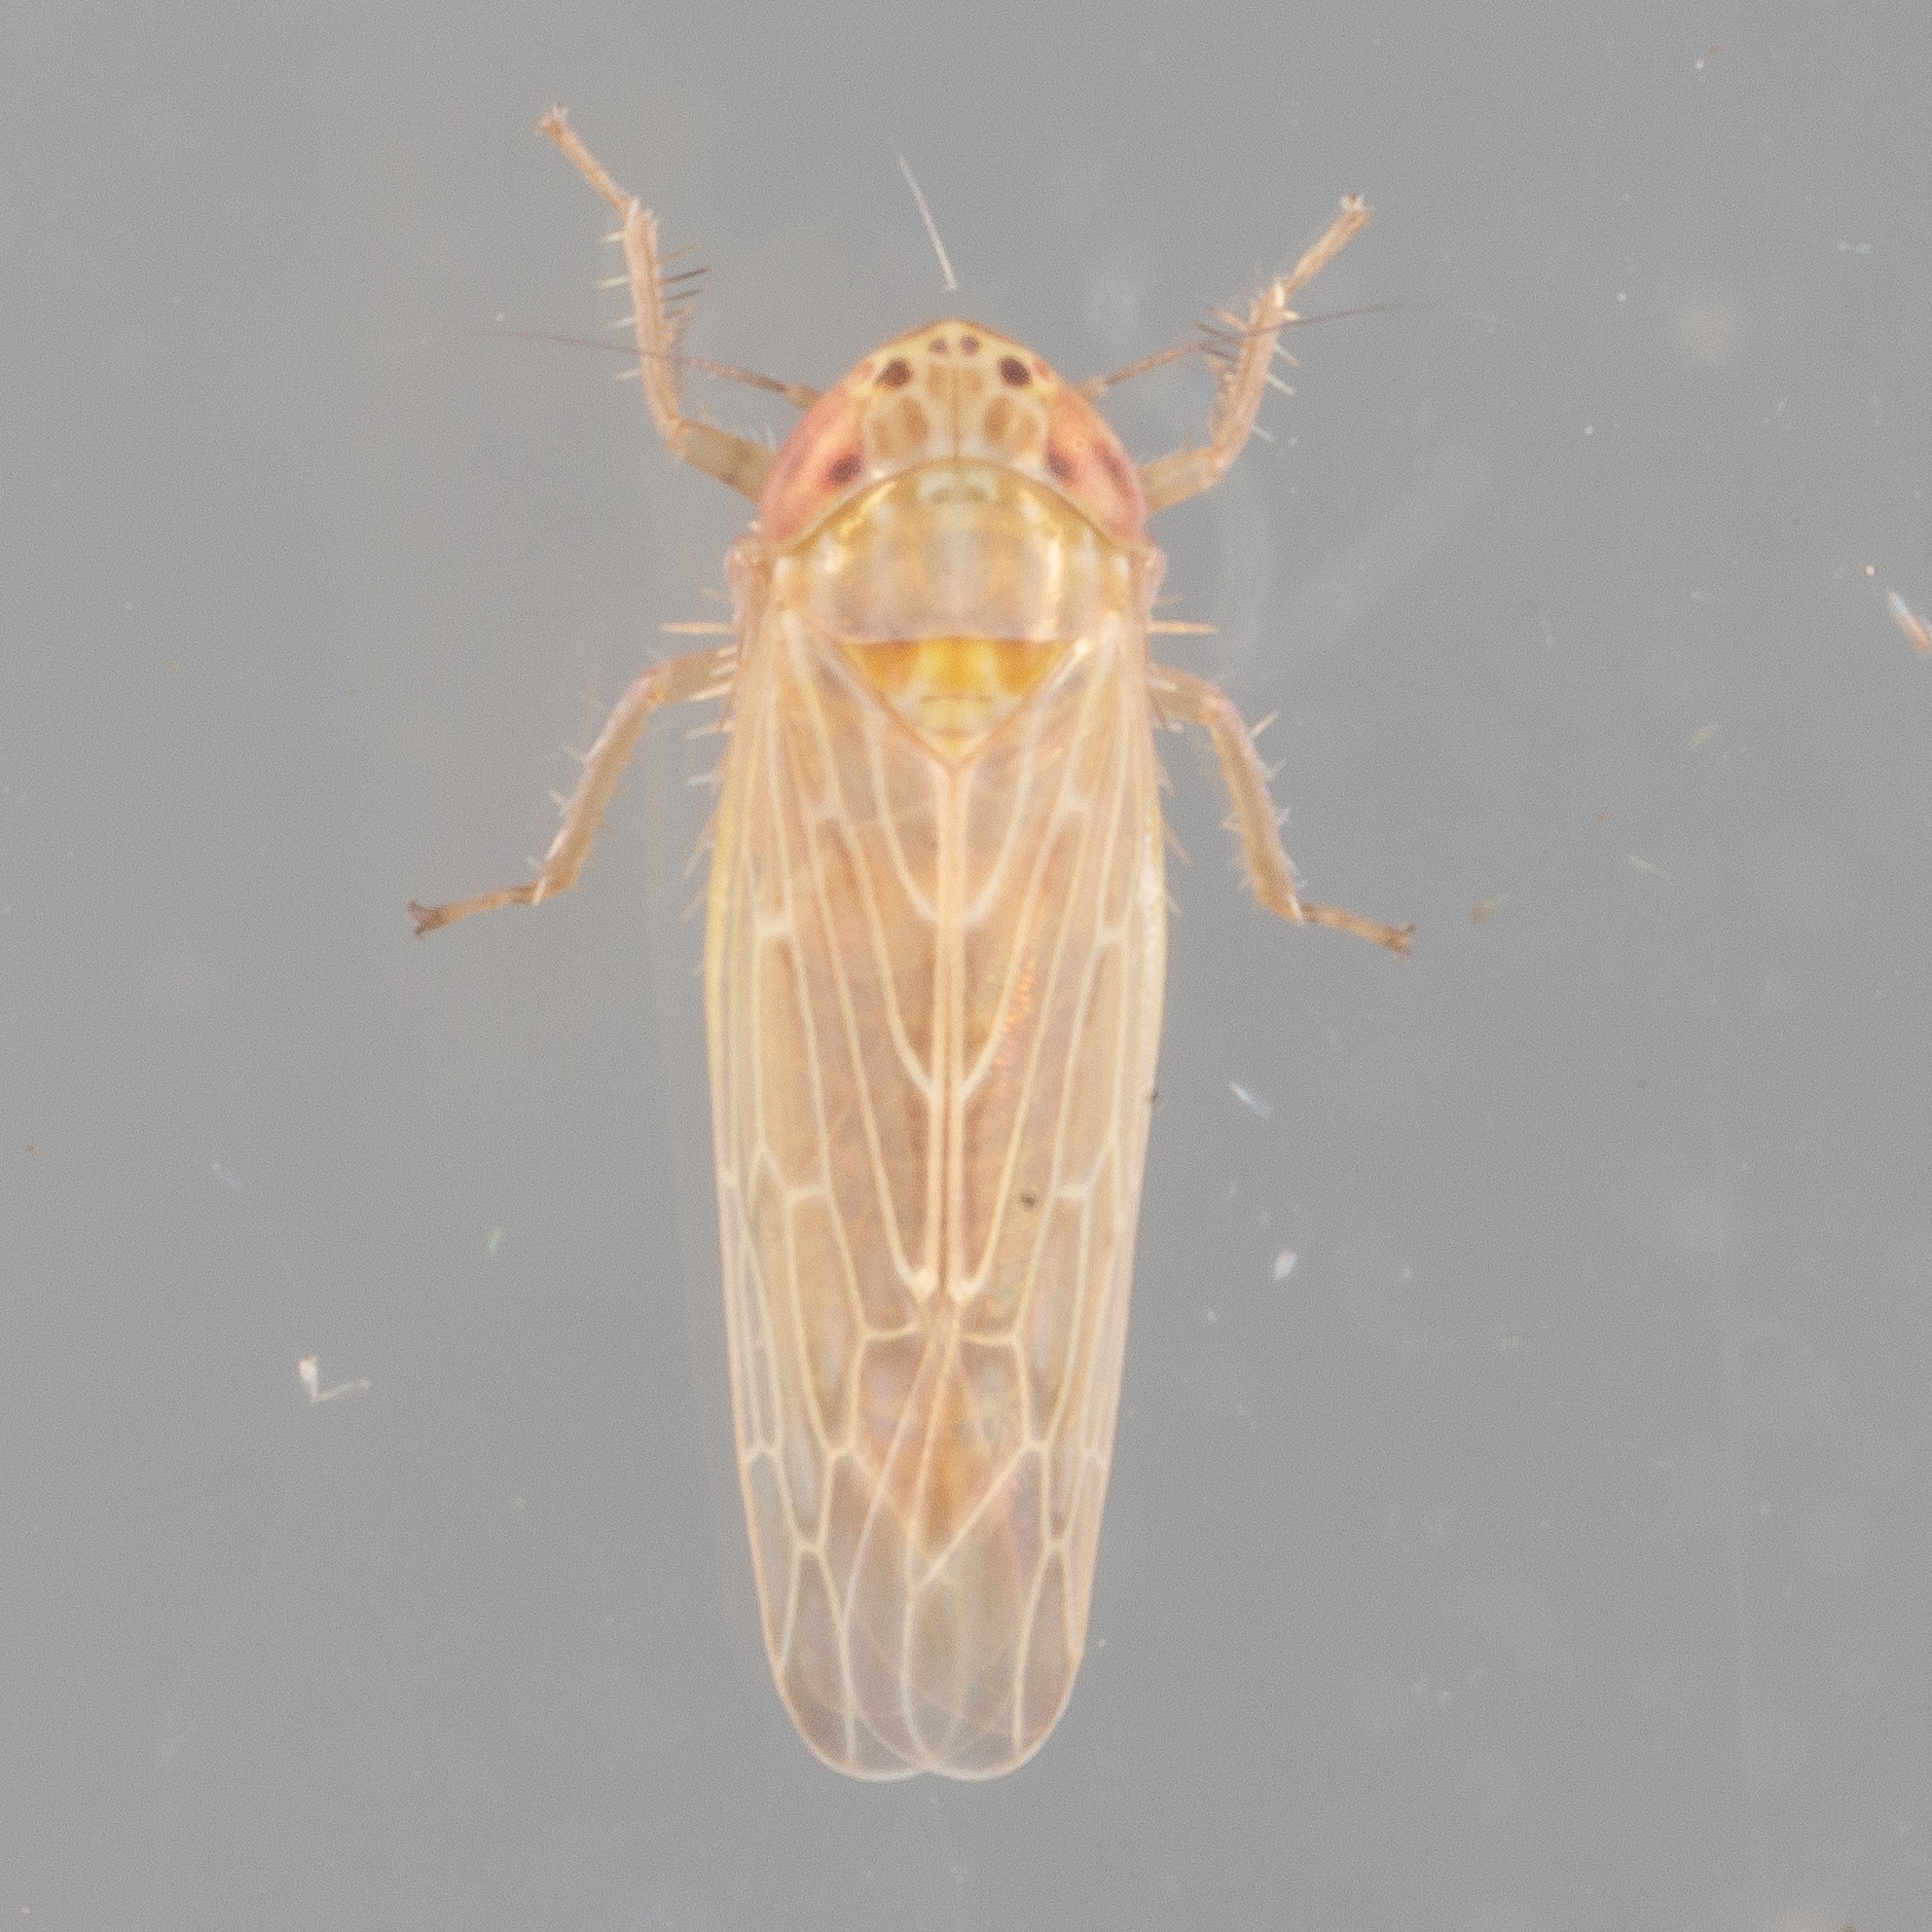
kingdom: Animalia
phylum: Arthropoda
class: Insecta
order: Hemiptera
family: Cicadellidae
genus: Graminella
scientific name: Graminella sonora
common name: Lesser lawn leafhopper
